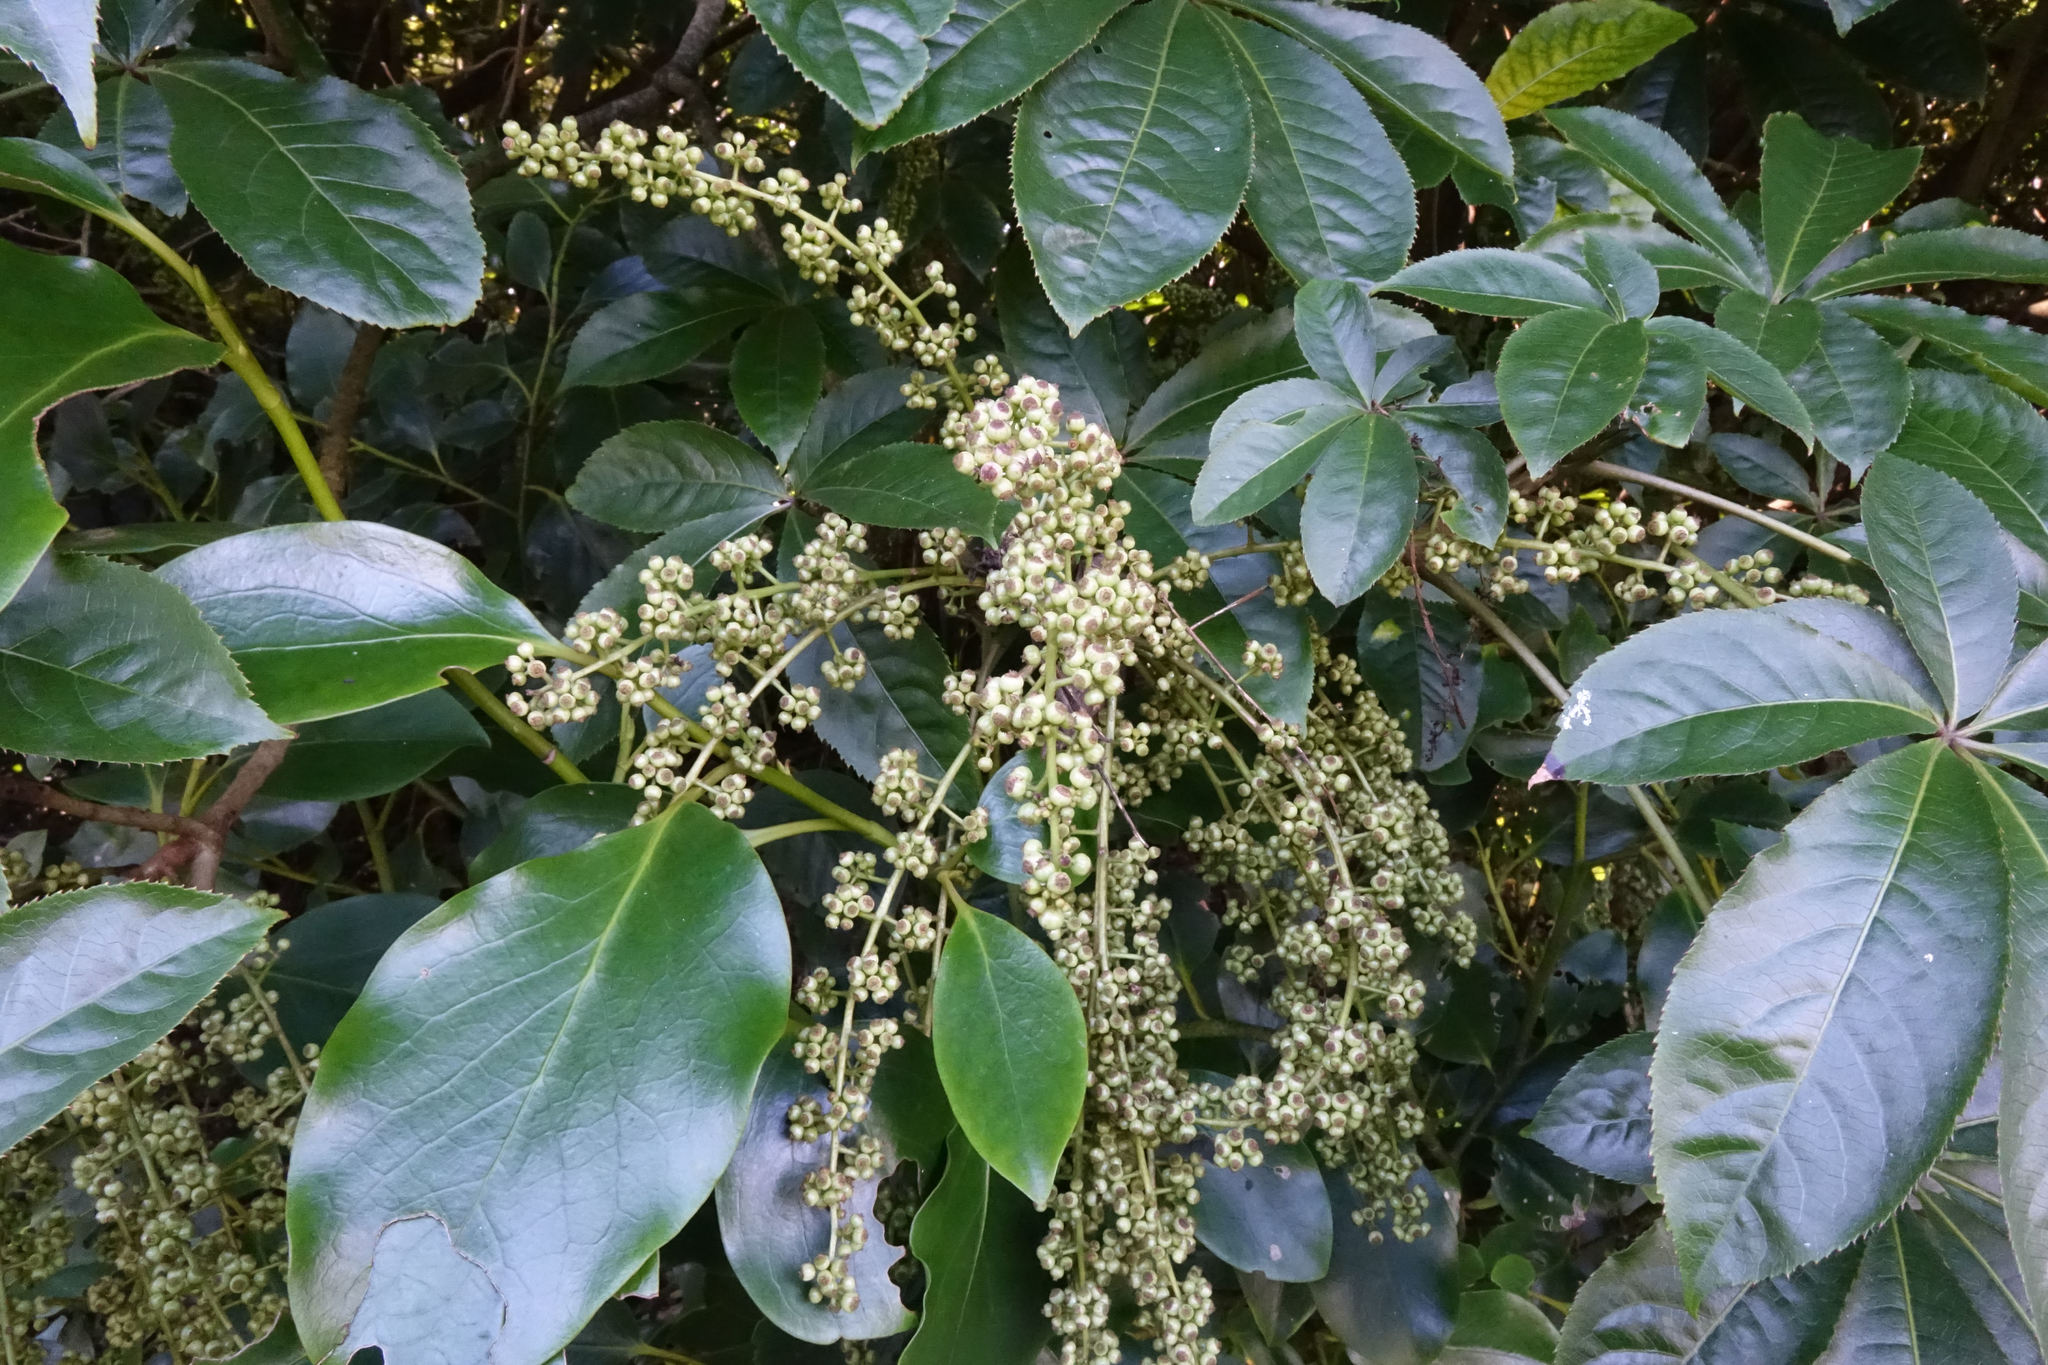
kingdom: Plantae
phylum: Tracheophyta
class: Magnoliopsida
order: Apiales
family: Araliaceae
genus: Schefflera
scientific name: Schefflera digitata
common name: Pate
